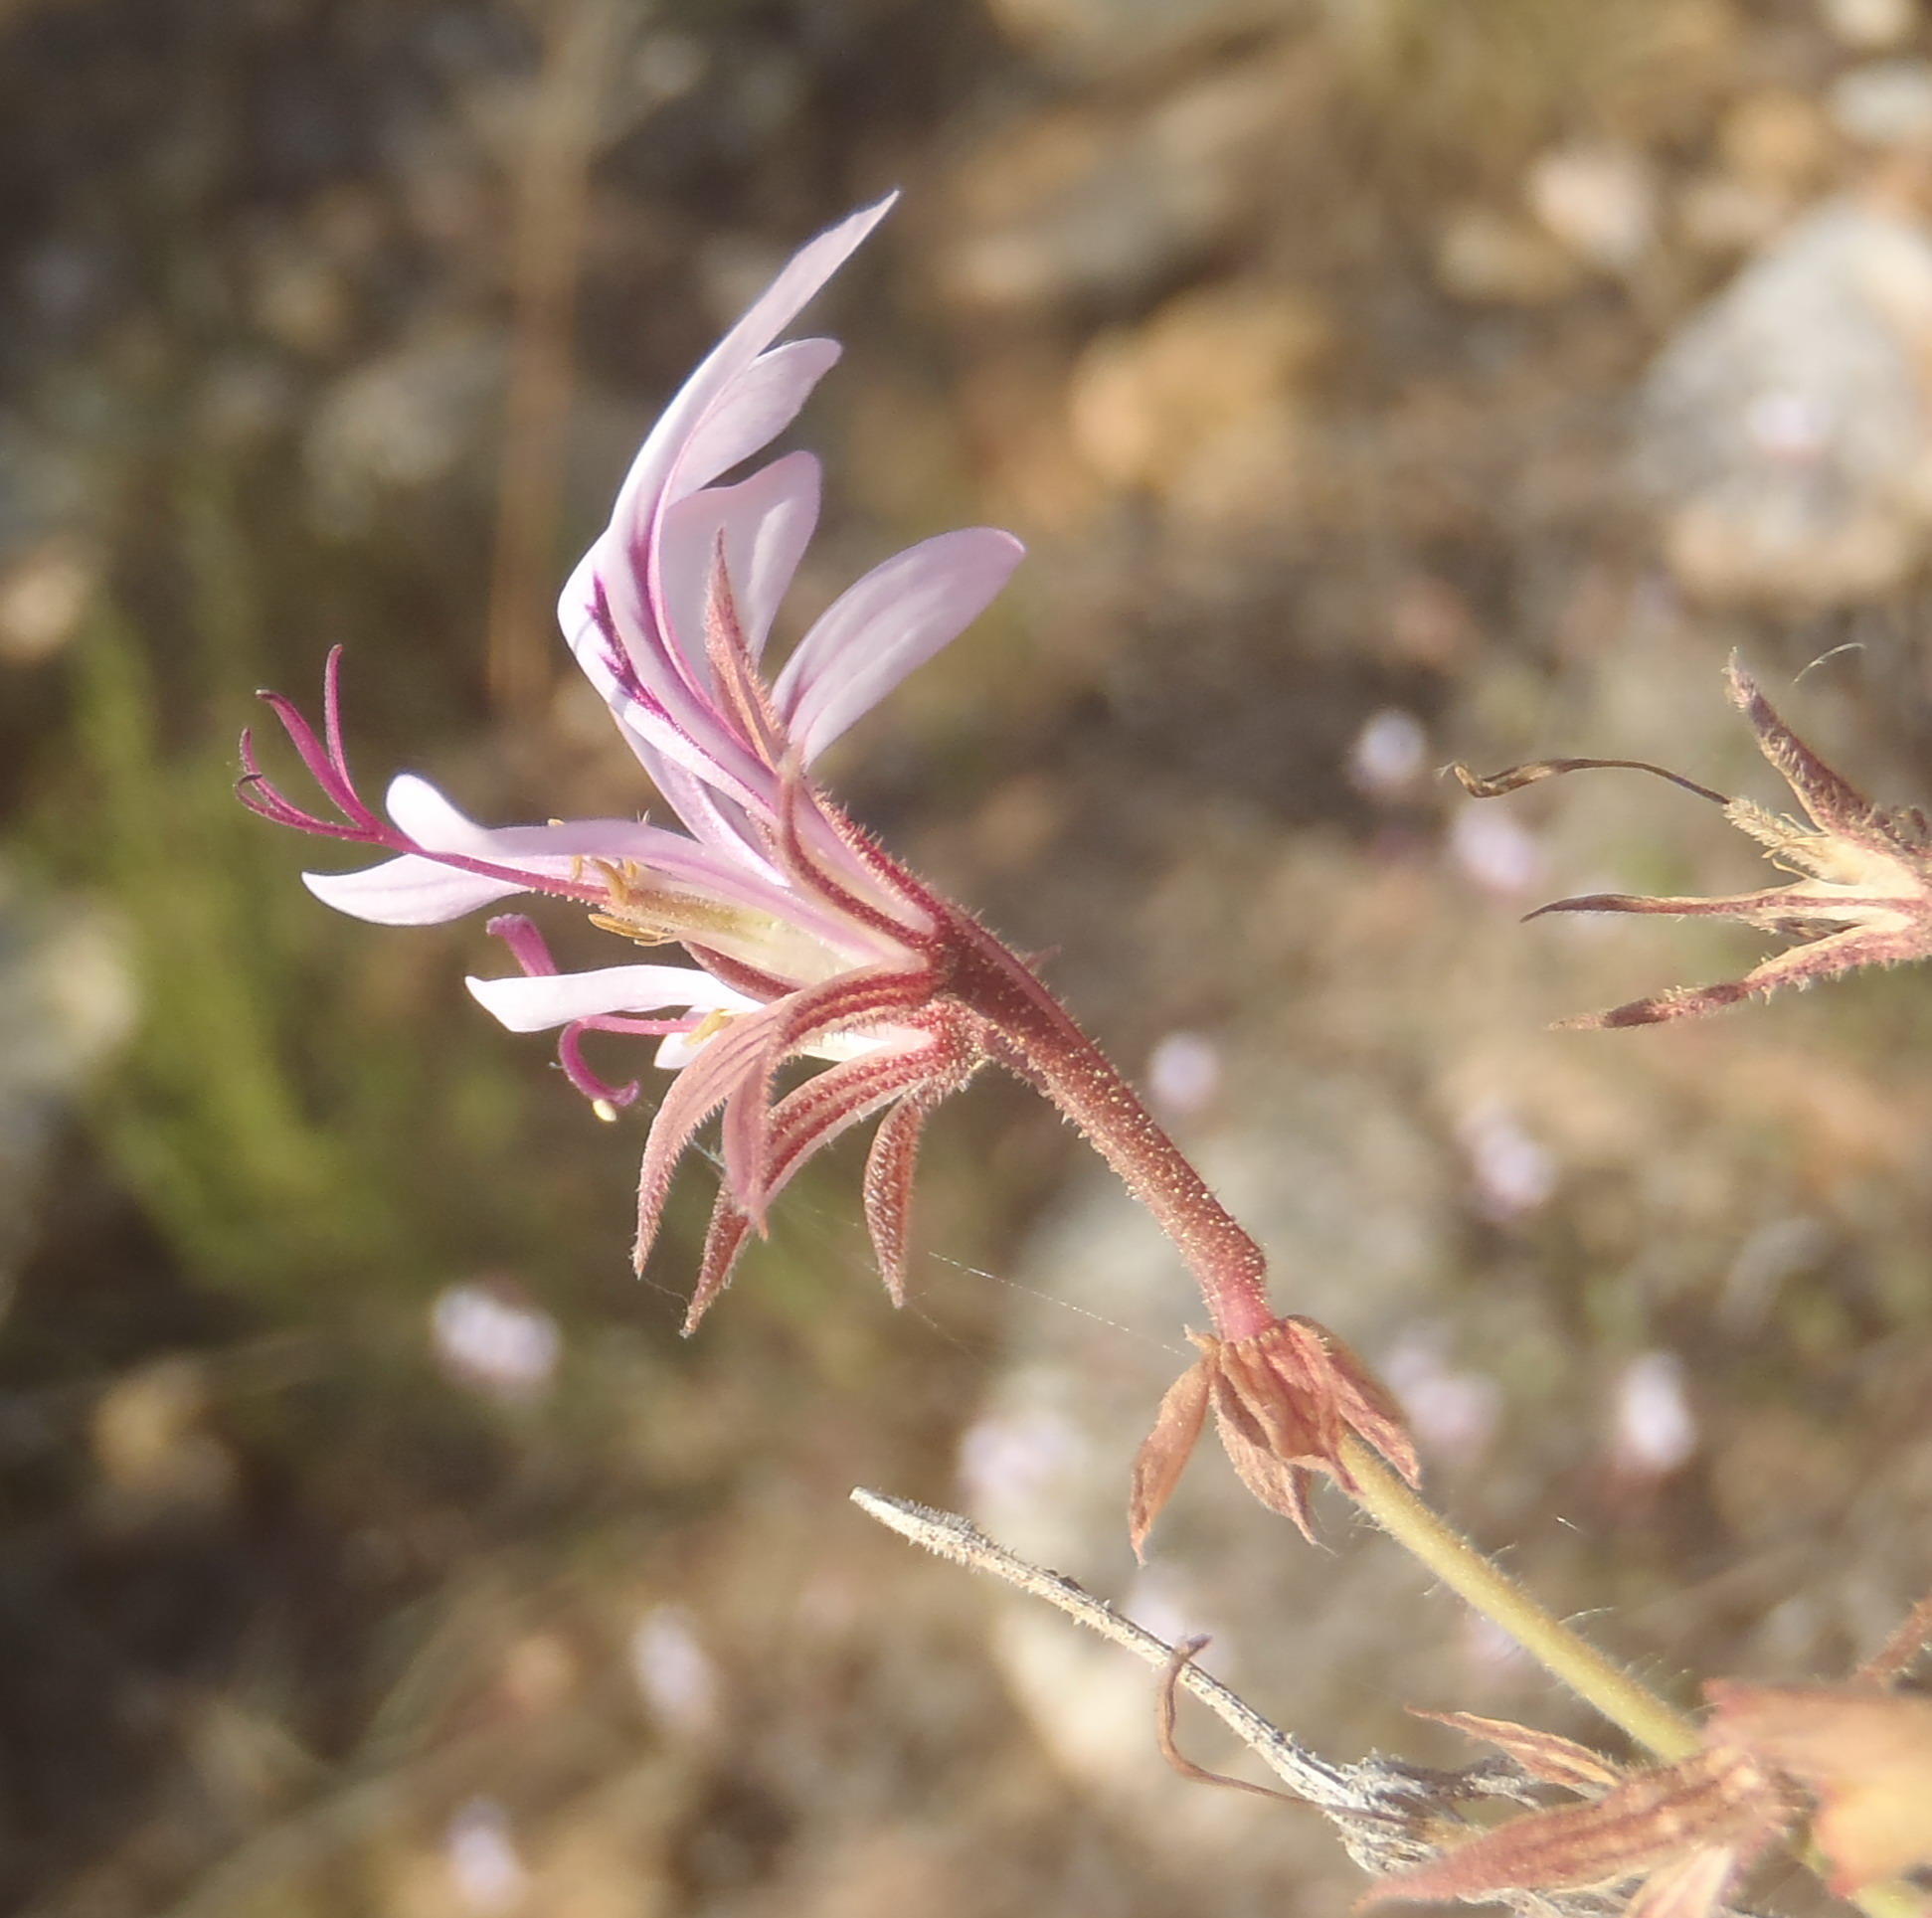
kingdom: Plantae
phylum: Tracheophyta
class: Magnoliopsida
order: Geraniales
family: Geraniaceae
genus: Pelargonium
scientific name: Pelargonium myrrhifolium
